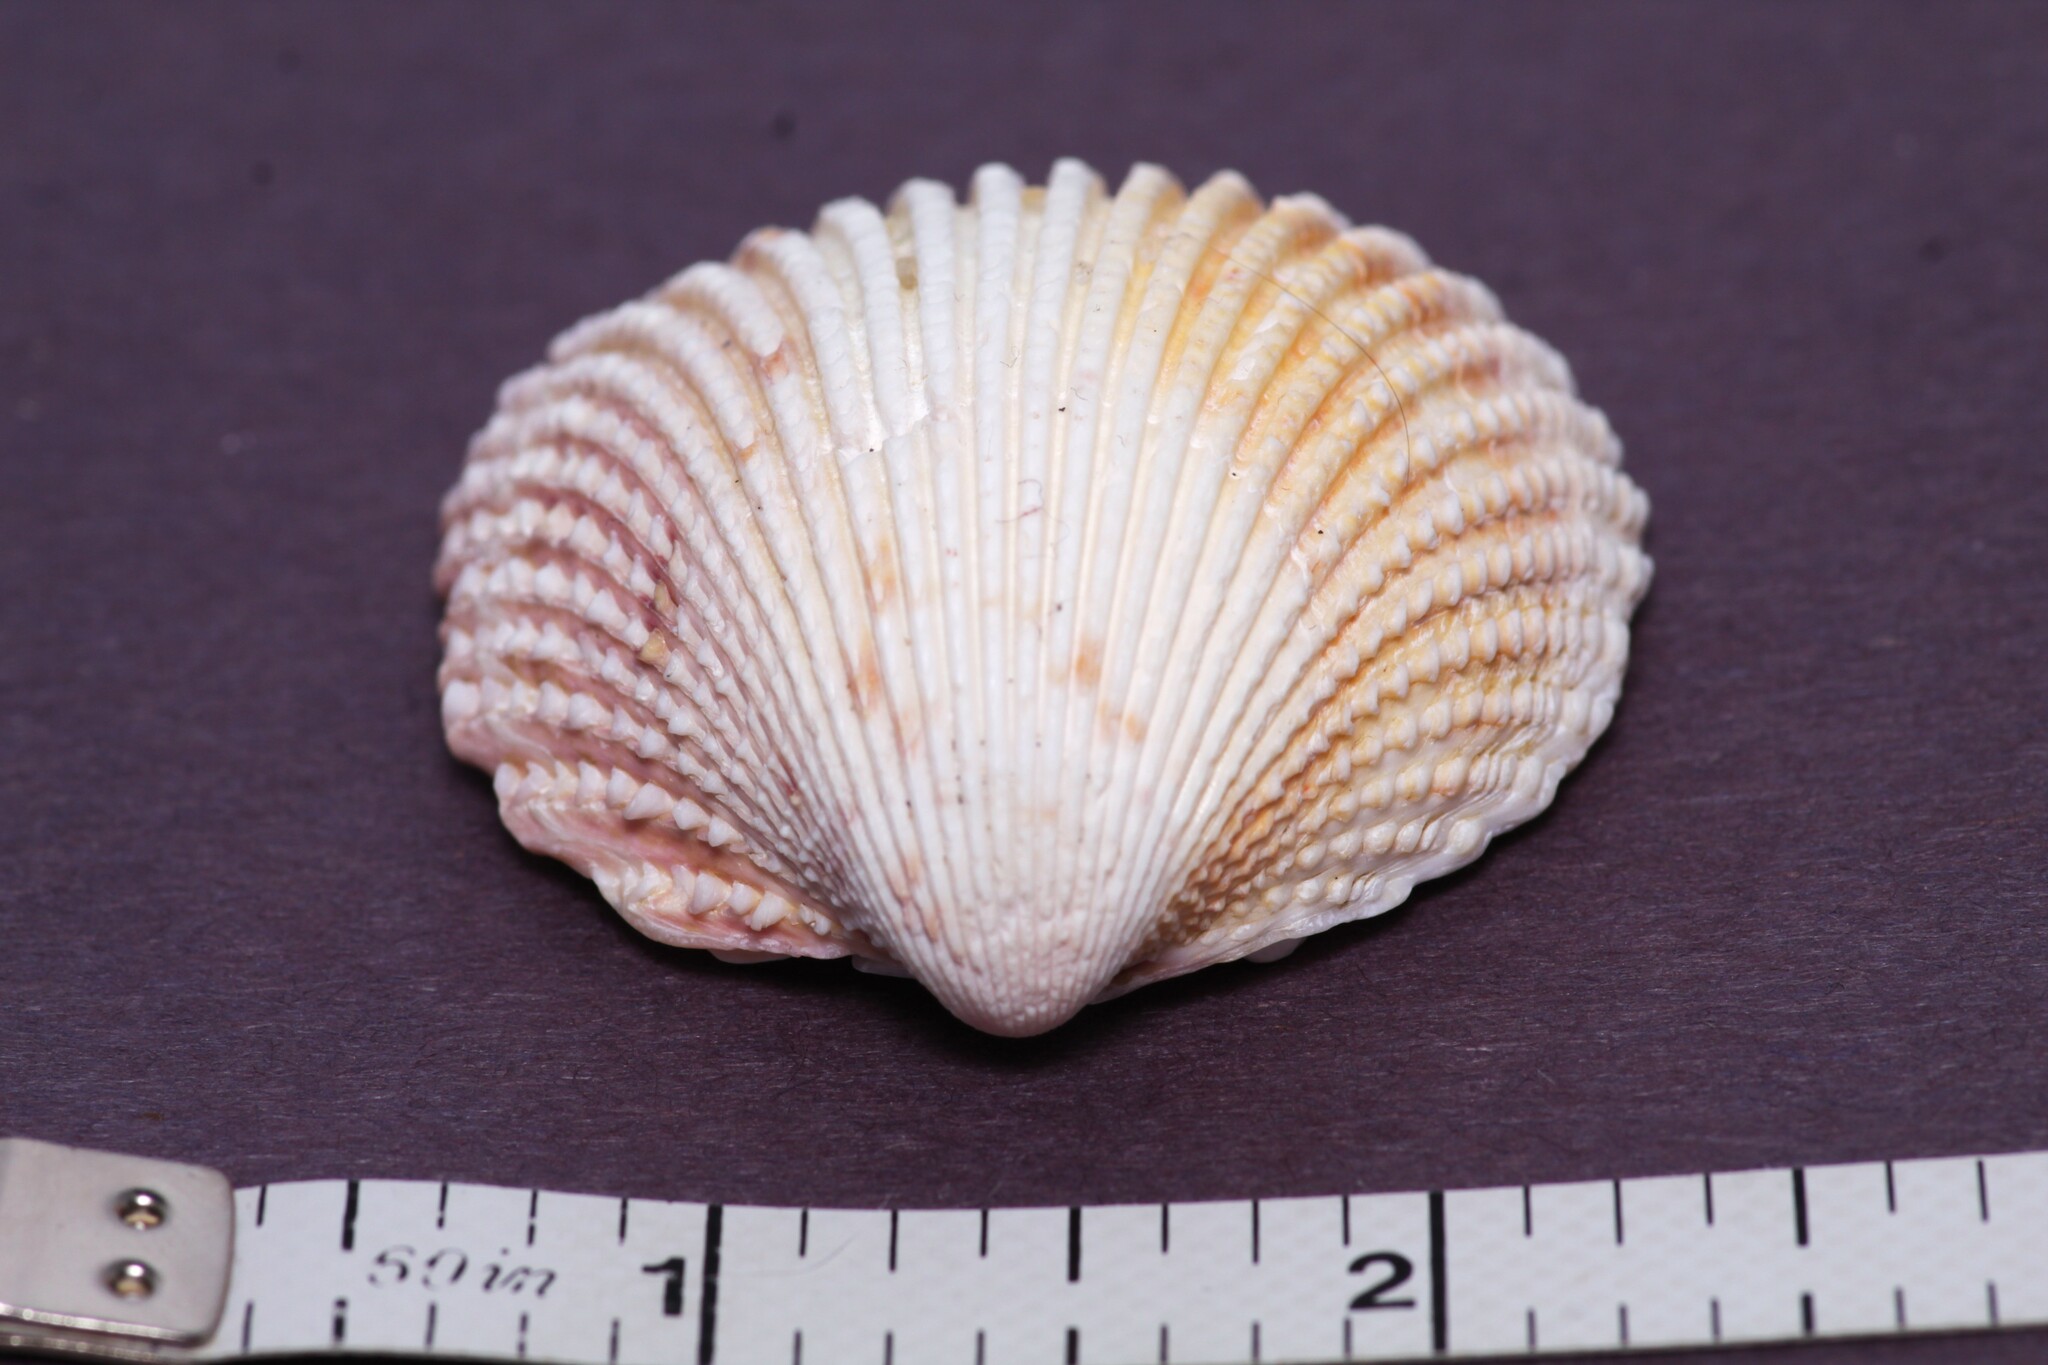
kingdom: Animalia
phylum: Mollusca
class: Bivalvia
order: Cardiida
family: Cardiidae
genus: Trachycardium
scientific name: Trachycardium egmontianum
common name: Florida pricklycockle
